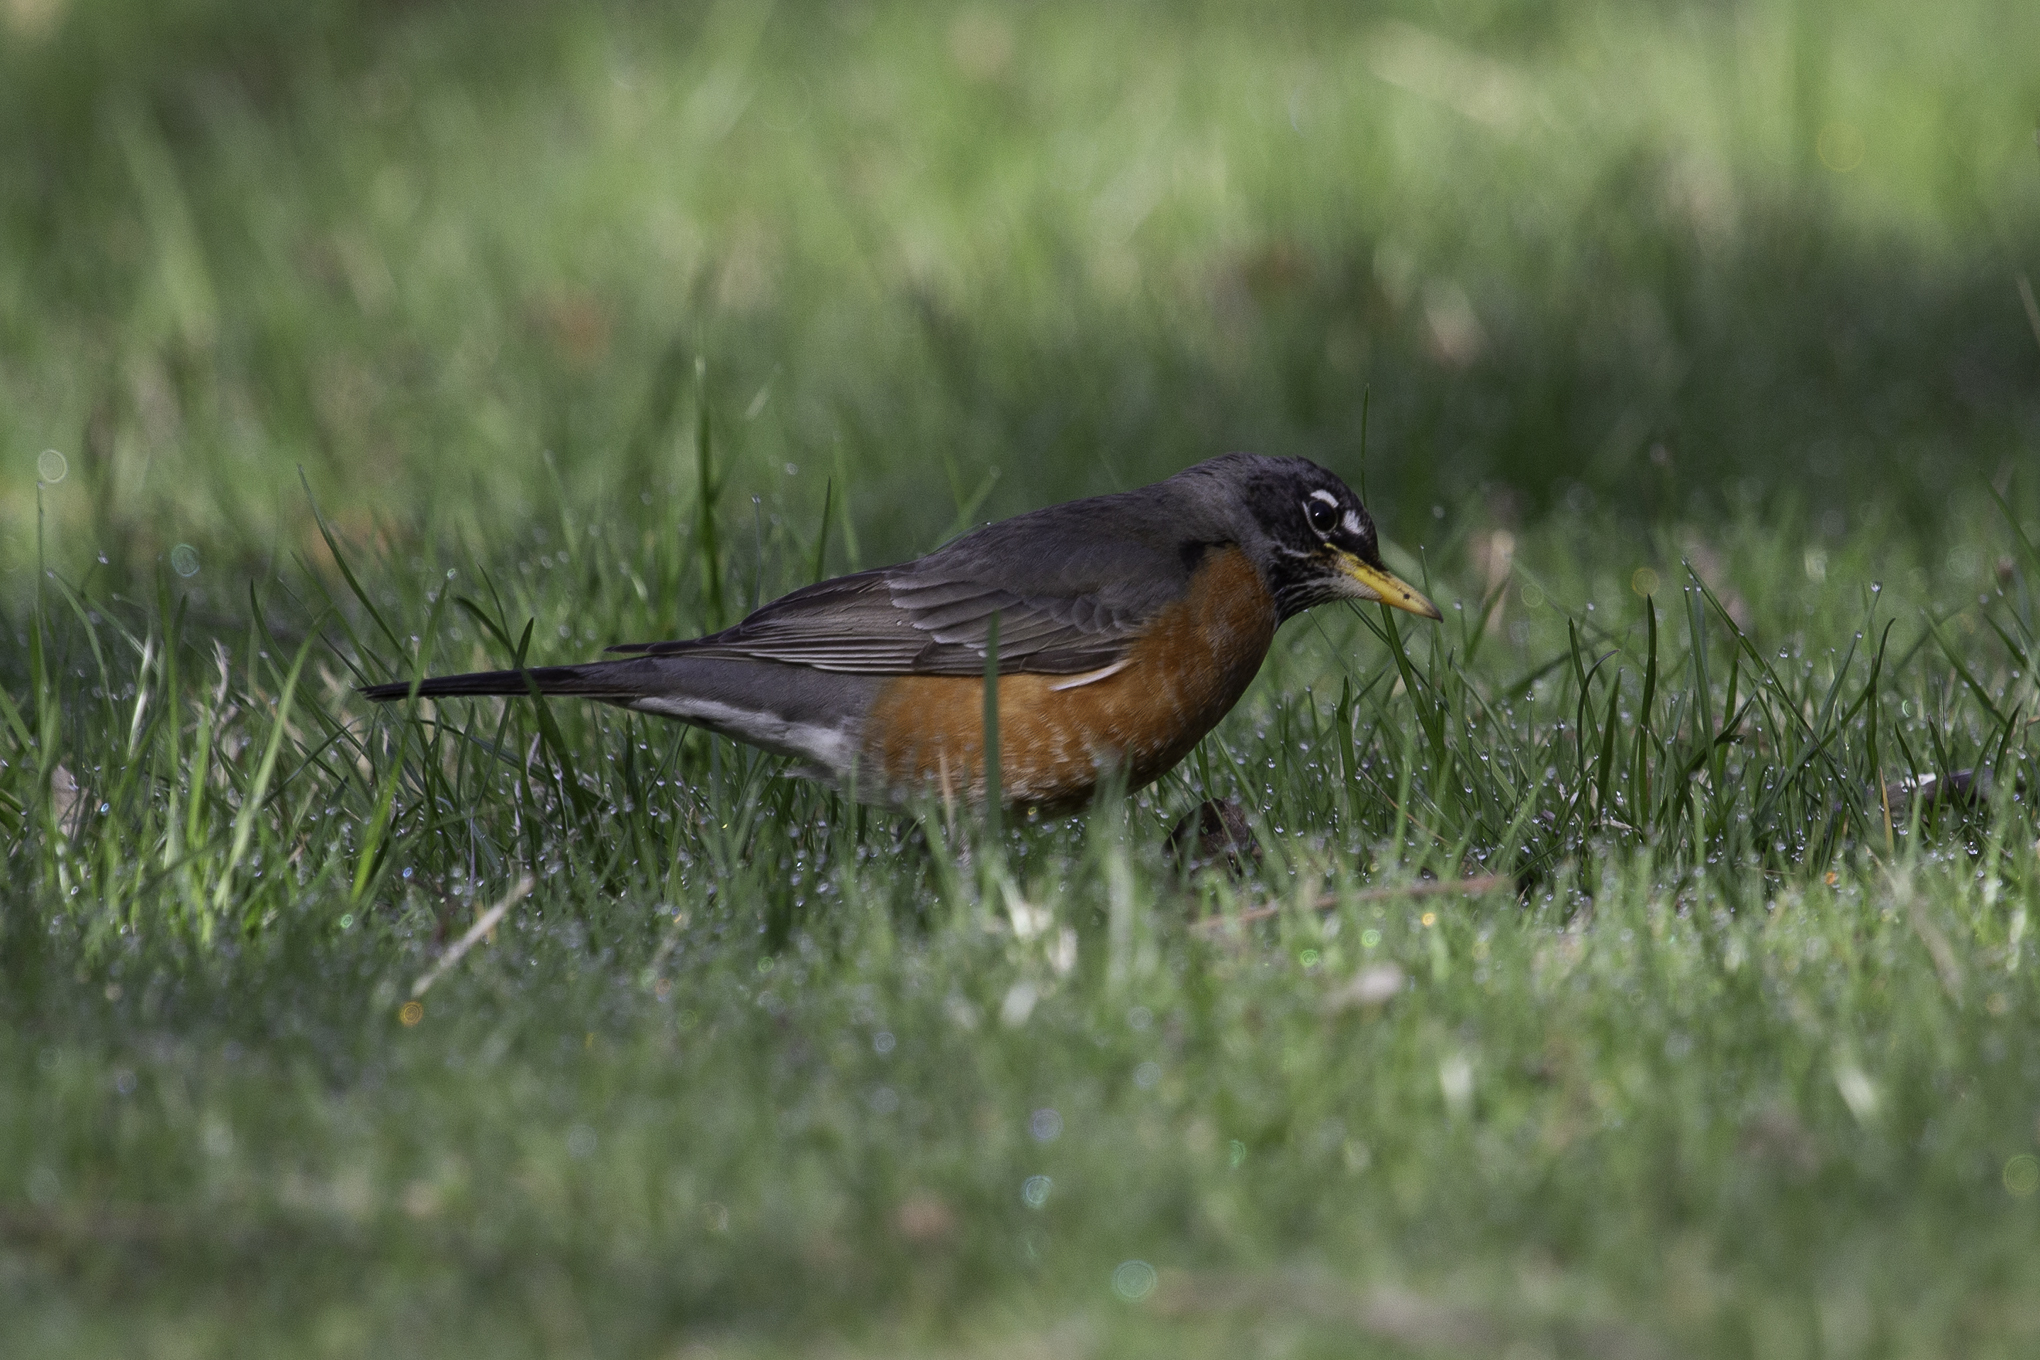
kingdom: Animalia
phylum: Chordata
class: Aves
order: Passeriformes
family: Turdidae
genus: Turdus
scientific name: Turdus migratorius
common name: American robin
